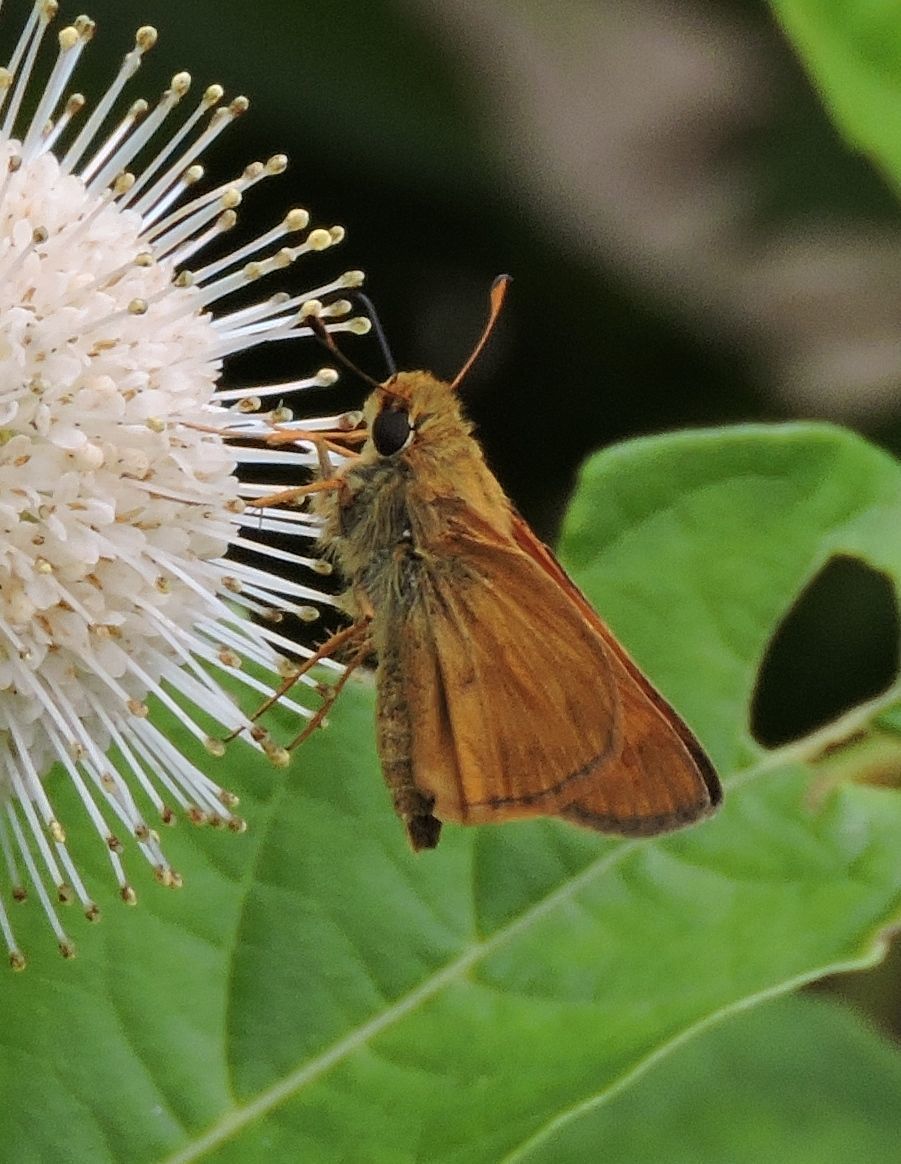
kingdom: Animalia
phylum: Arthropoda
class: Insecta
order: Lepidoptera
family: Hesperiidae
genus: Atalopedes
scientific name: Atalopedes
